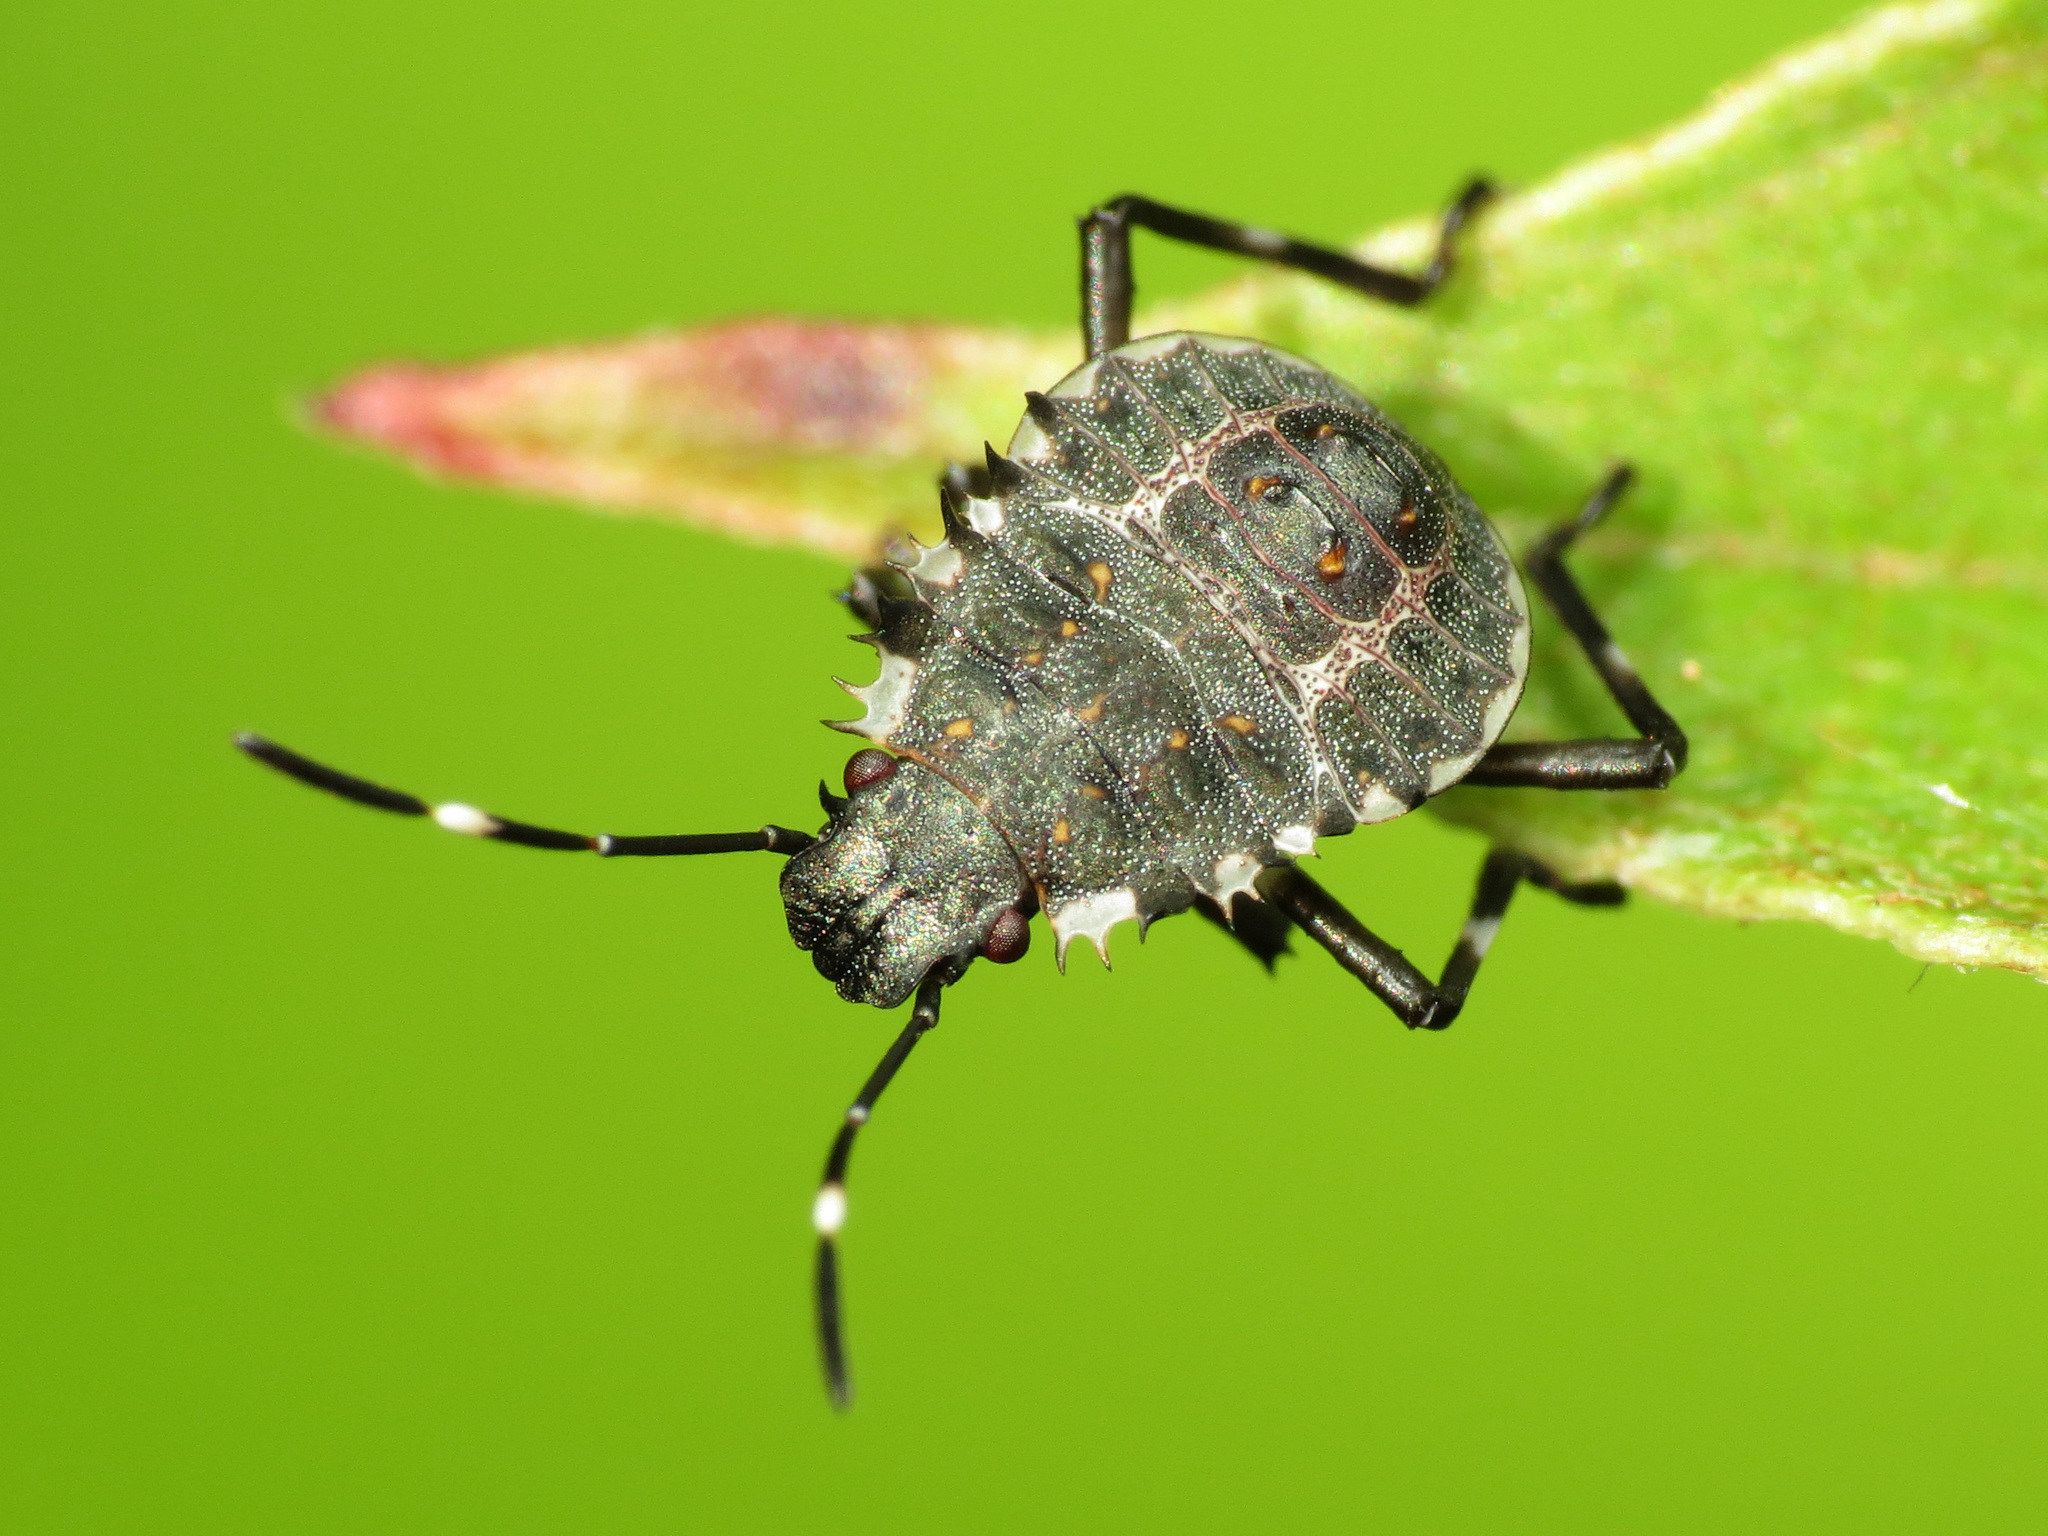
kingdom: Animalia
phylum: Arthropoda
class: Insecta
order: Hemiptera
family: Pentatomidae
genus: Halyomorpha
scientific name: Halyomorpha halys
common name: Brown marmorated stink bug
